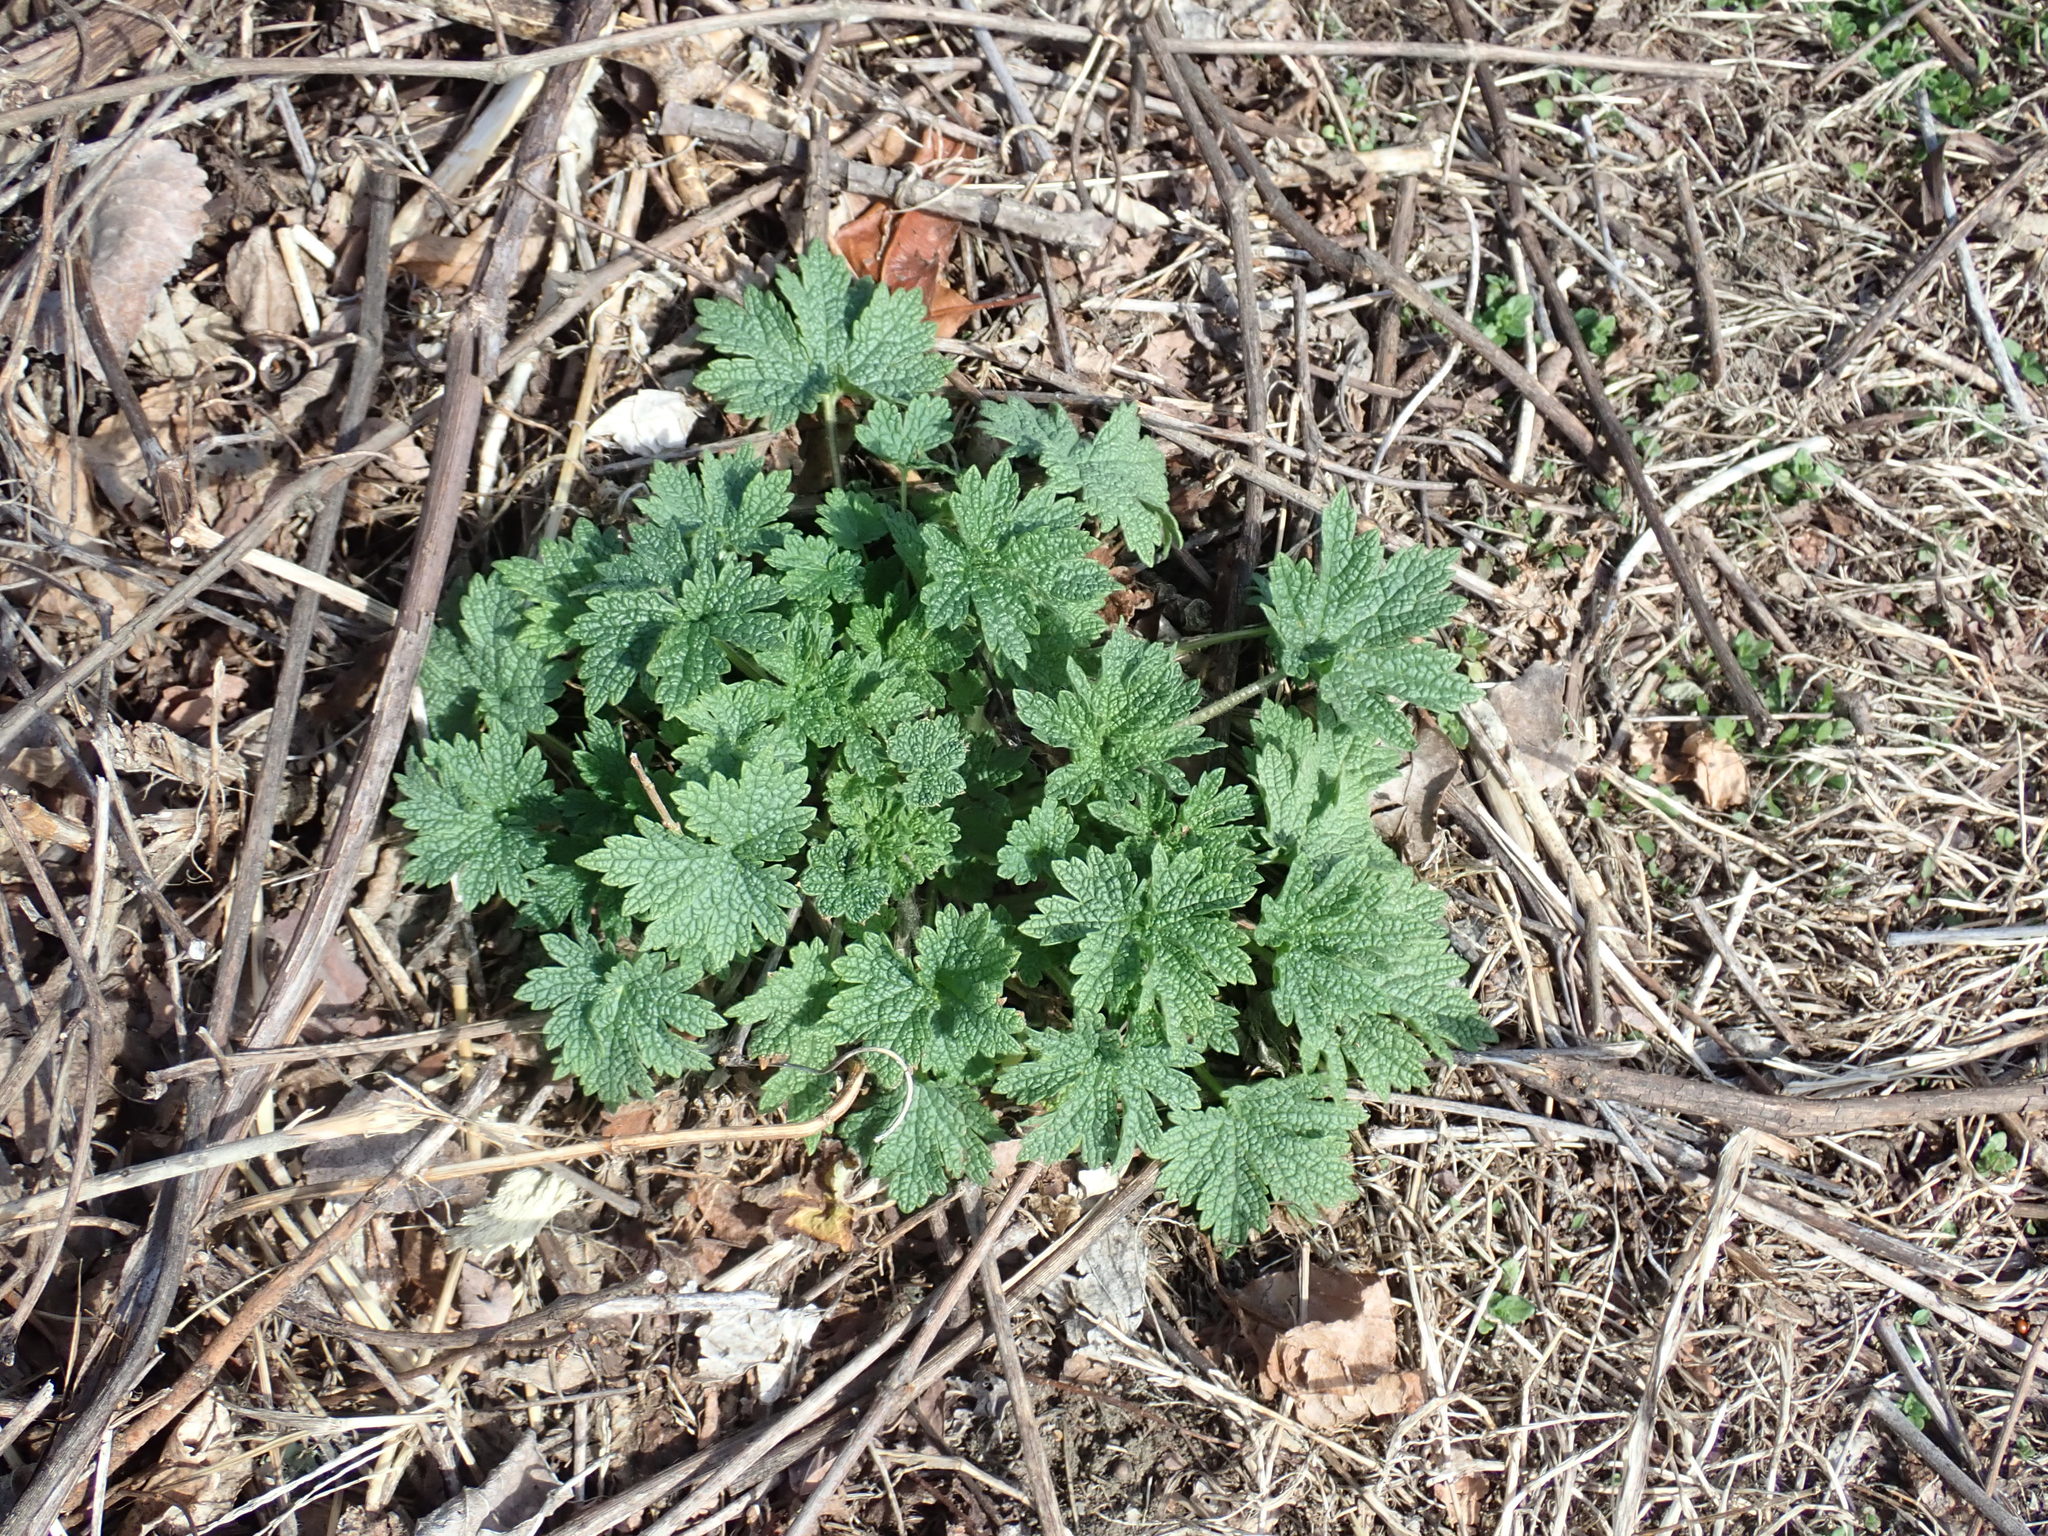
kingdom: Plantae
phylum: Tracheophyta
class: Magnoliopsida
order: Lamiales
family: Lamiaceae
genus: Leonurus
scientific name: Leonurus cardiaca
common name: Motherwort
